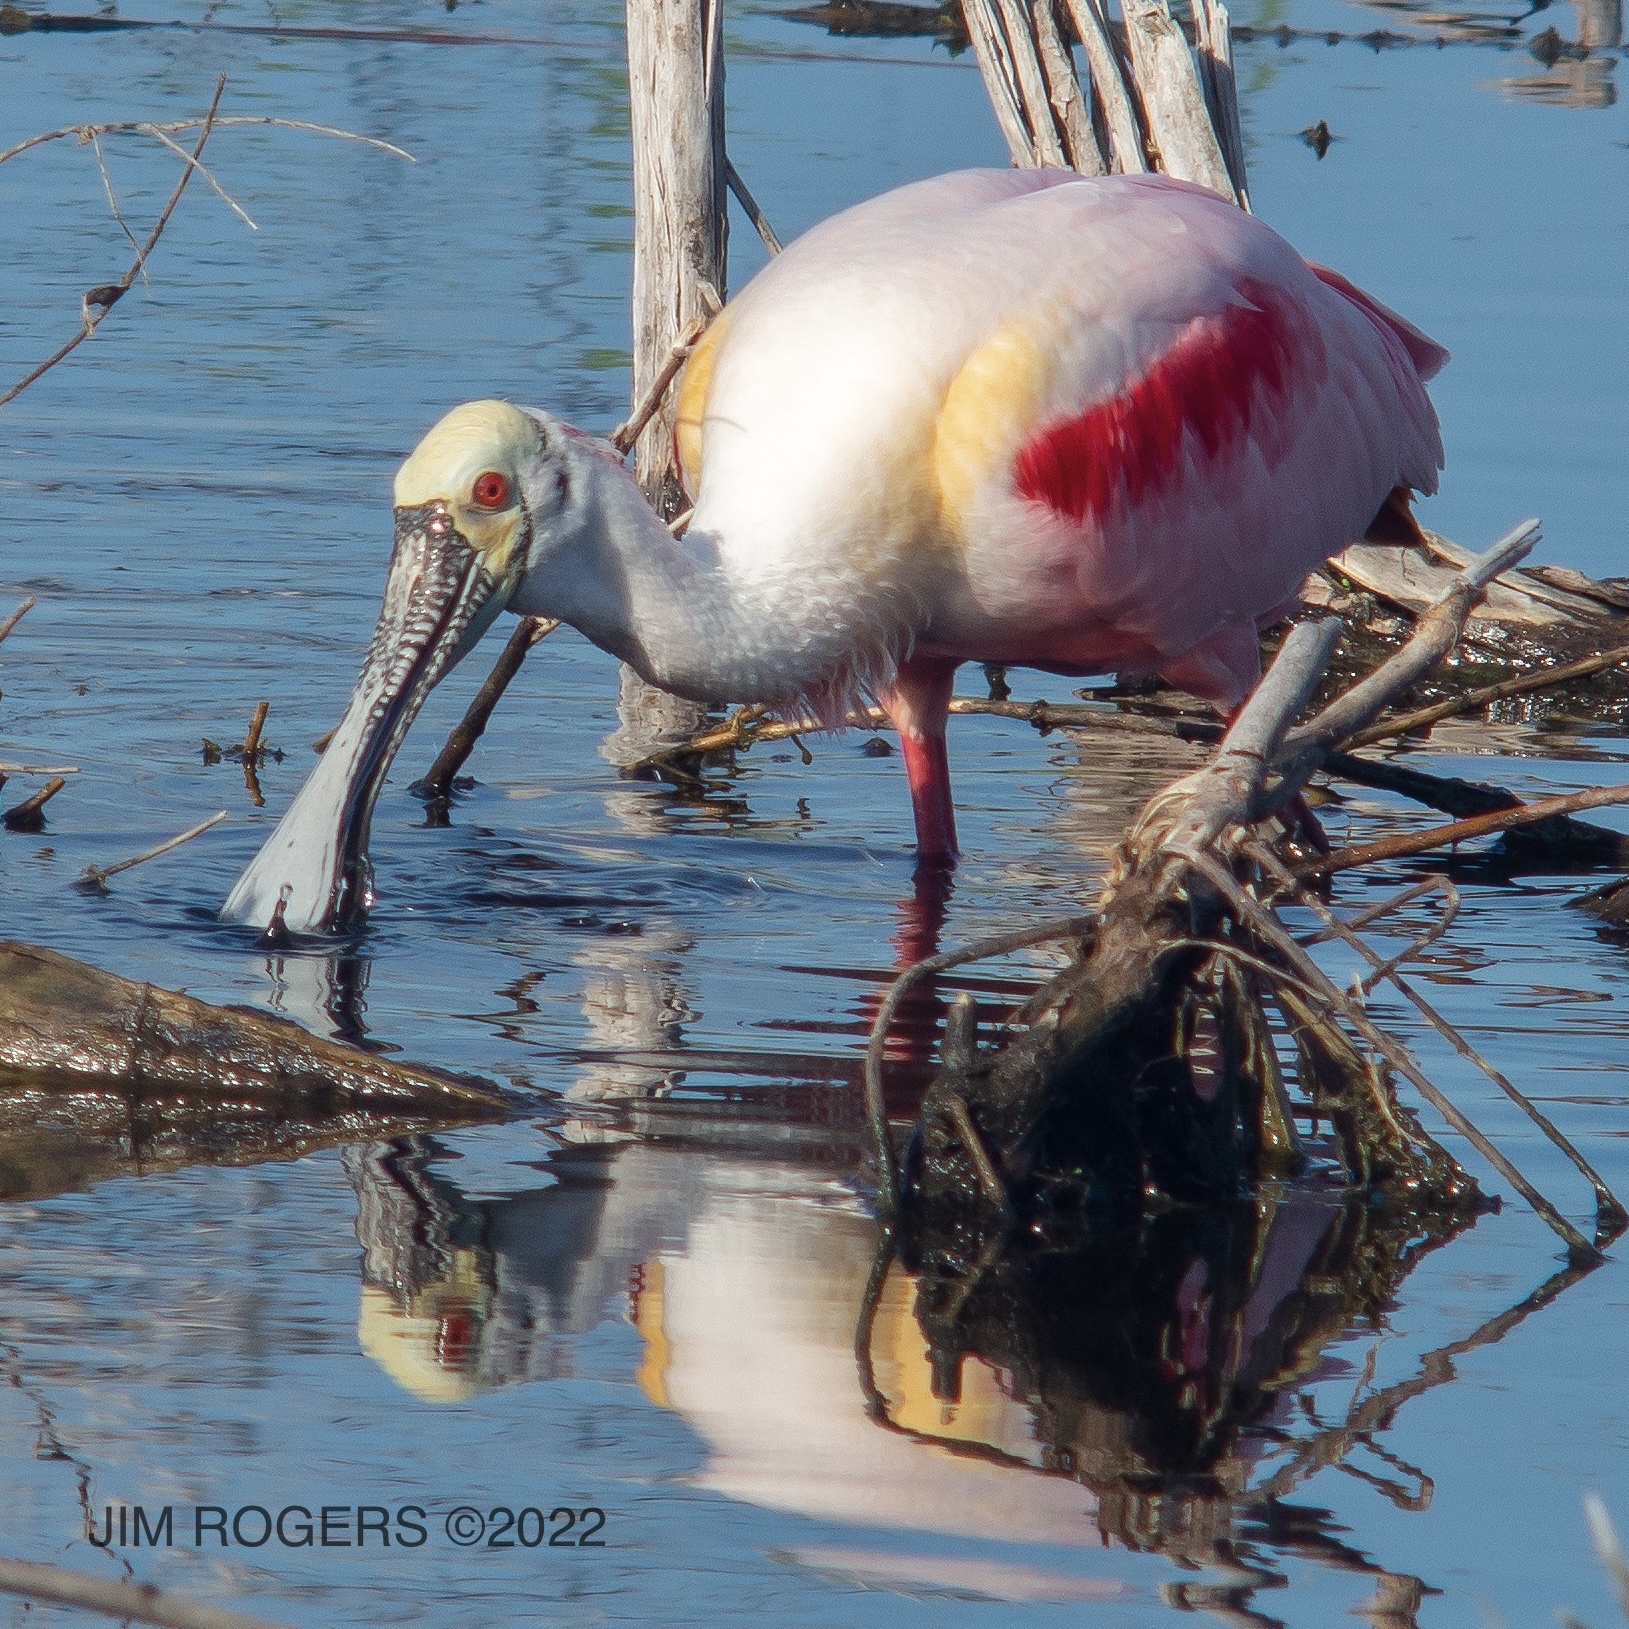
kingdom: Animalia
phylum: Chordata
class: Aves
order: Pelecaniformes
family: Threskiornithidae
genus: Platalea
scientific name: Platalea ajaja
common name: Roseate spoonbill
